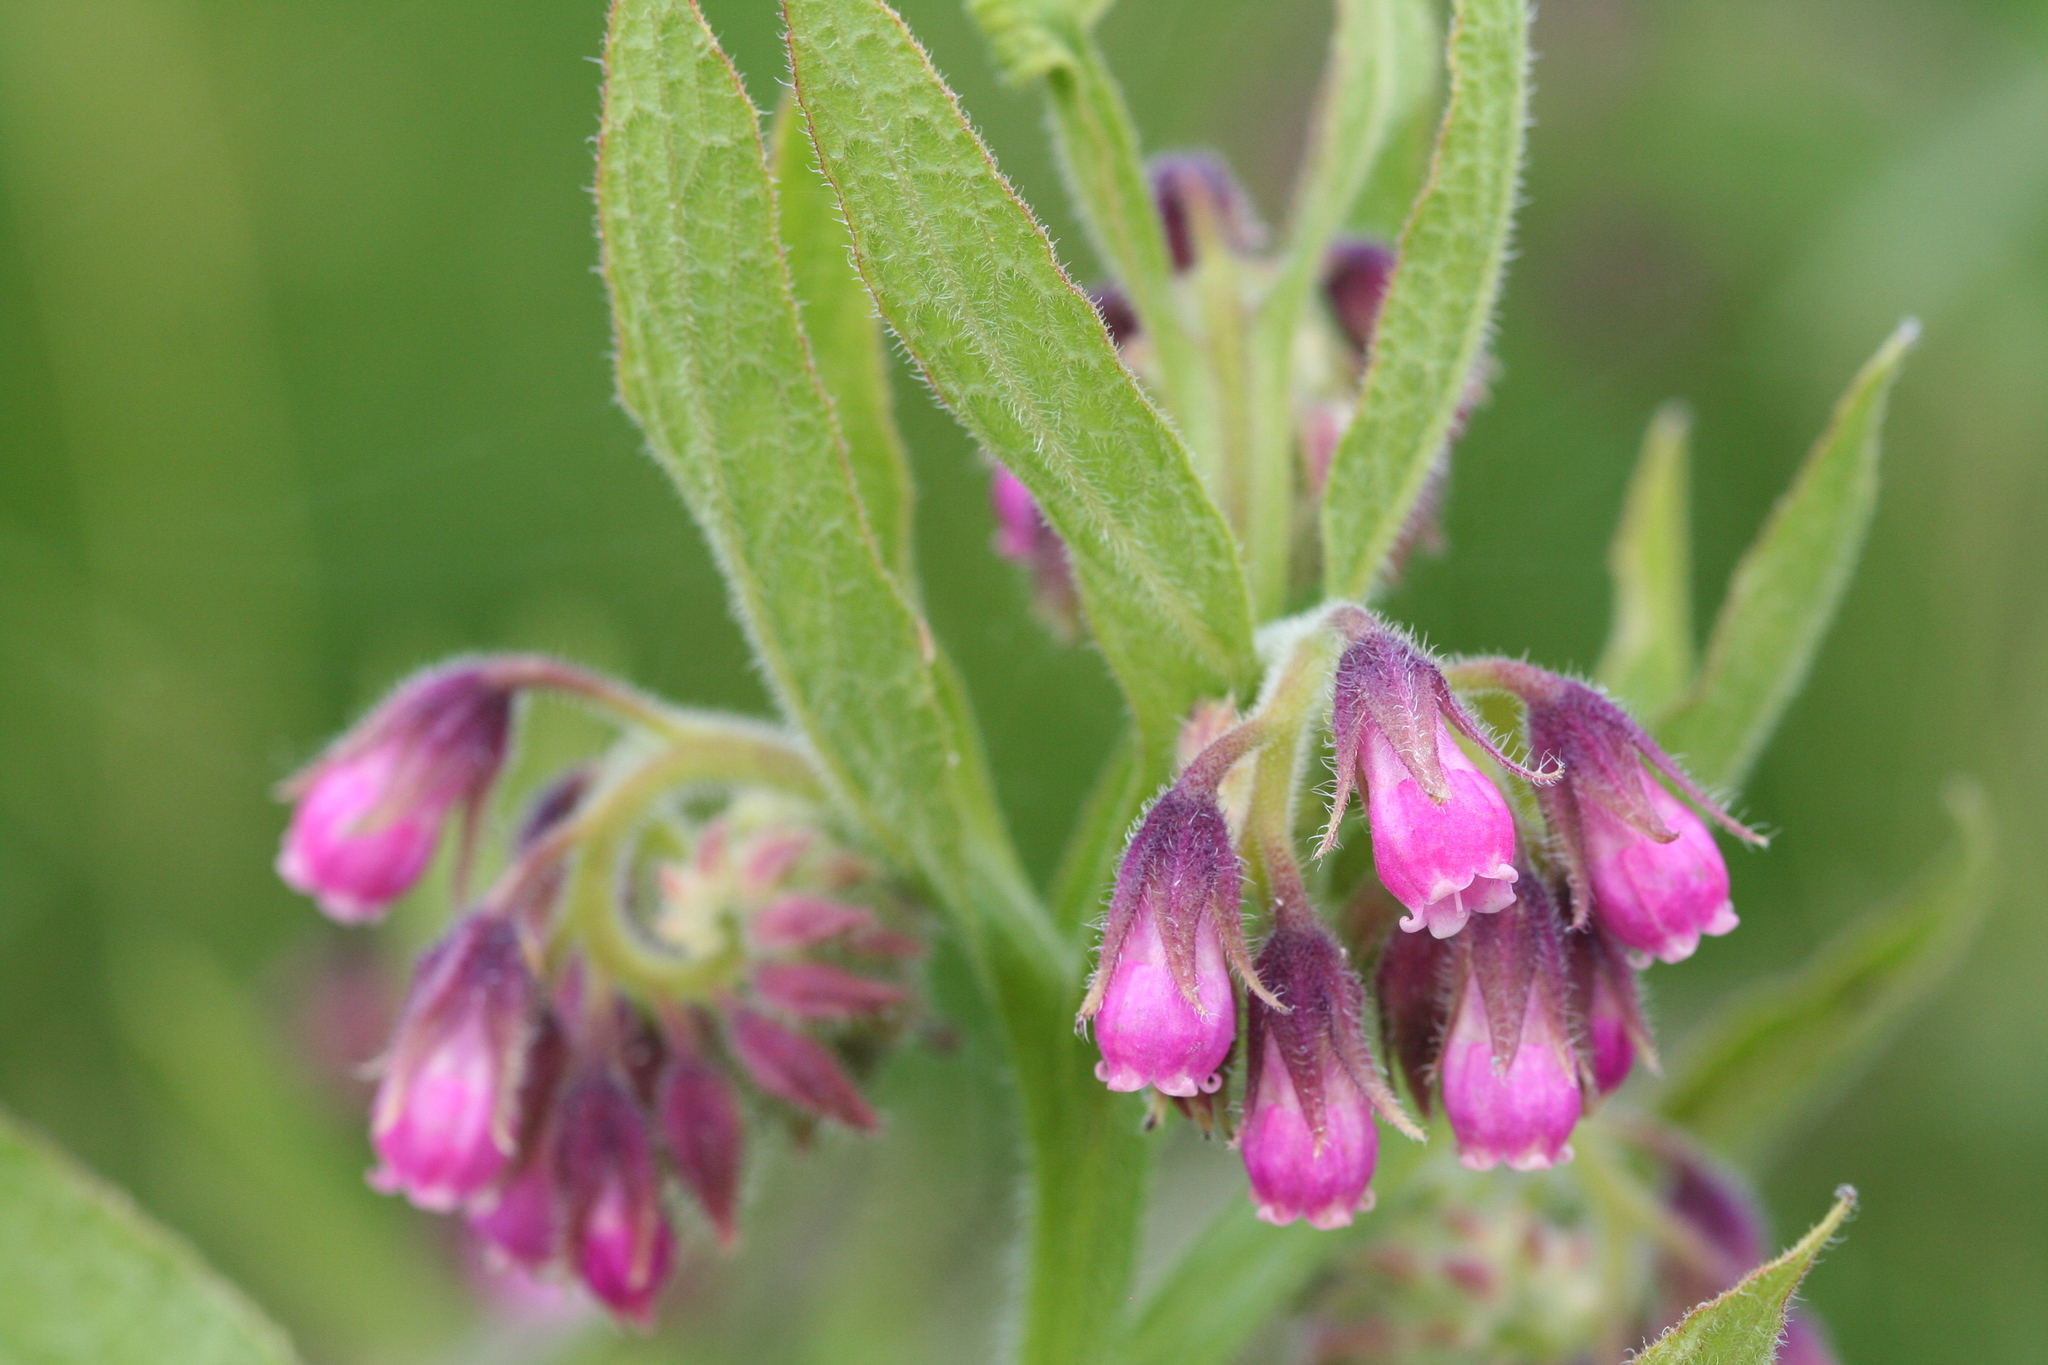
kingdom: Plantae
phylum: Tracheophyta
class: Magnoliopsida
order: Boraginales
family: Boraginaceae
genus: Symphytum
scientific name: Symphytum officinale
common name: Common comfrey
